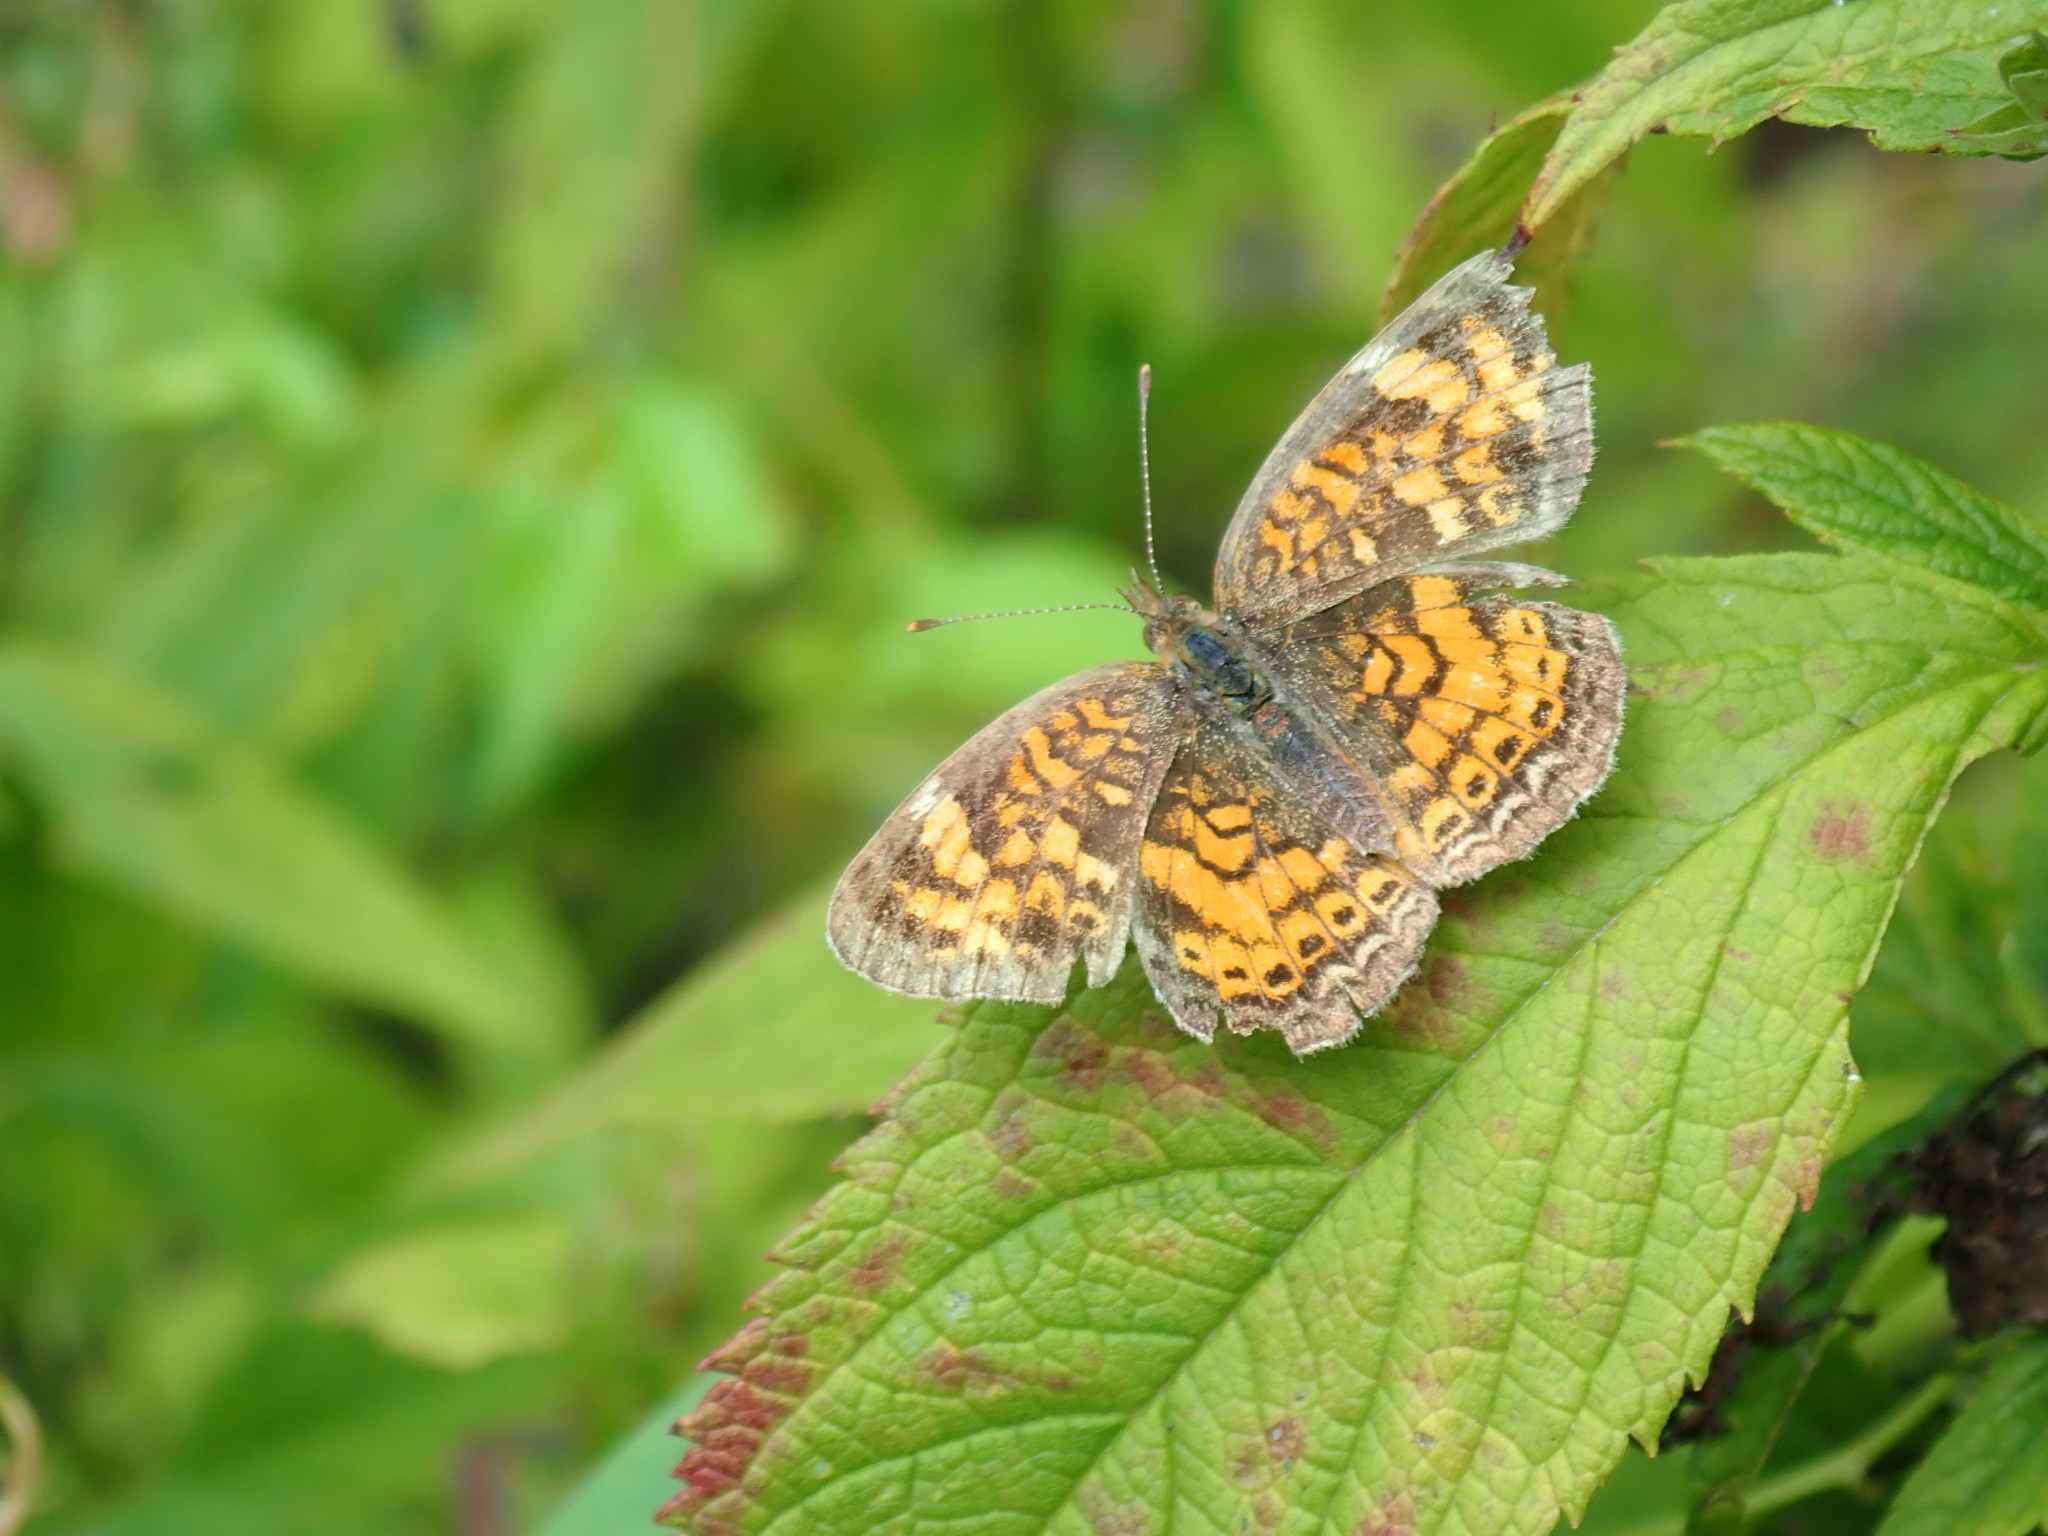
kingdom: Animalia
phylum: Arthropoda
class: Insecta
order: Lepidoptera
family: Nymphalidae
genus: Phyciodes
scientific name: Phyciodes tharos
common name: Pearl crescent
